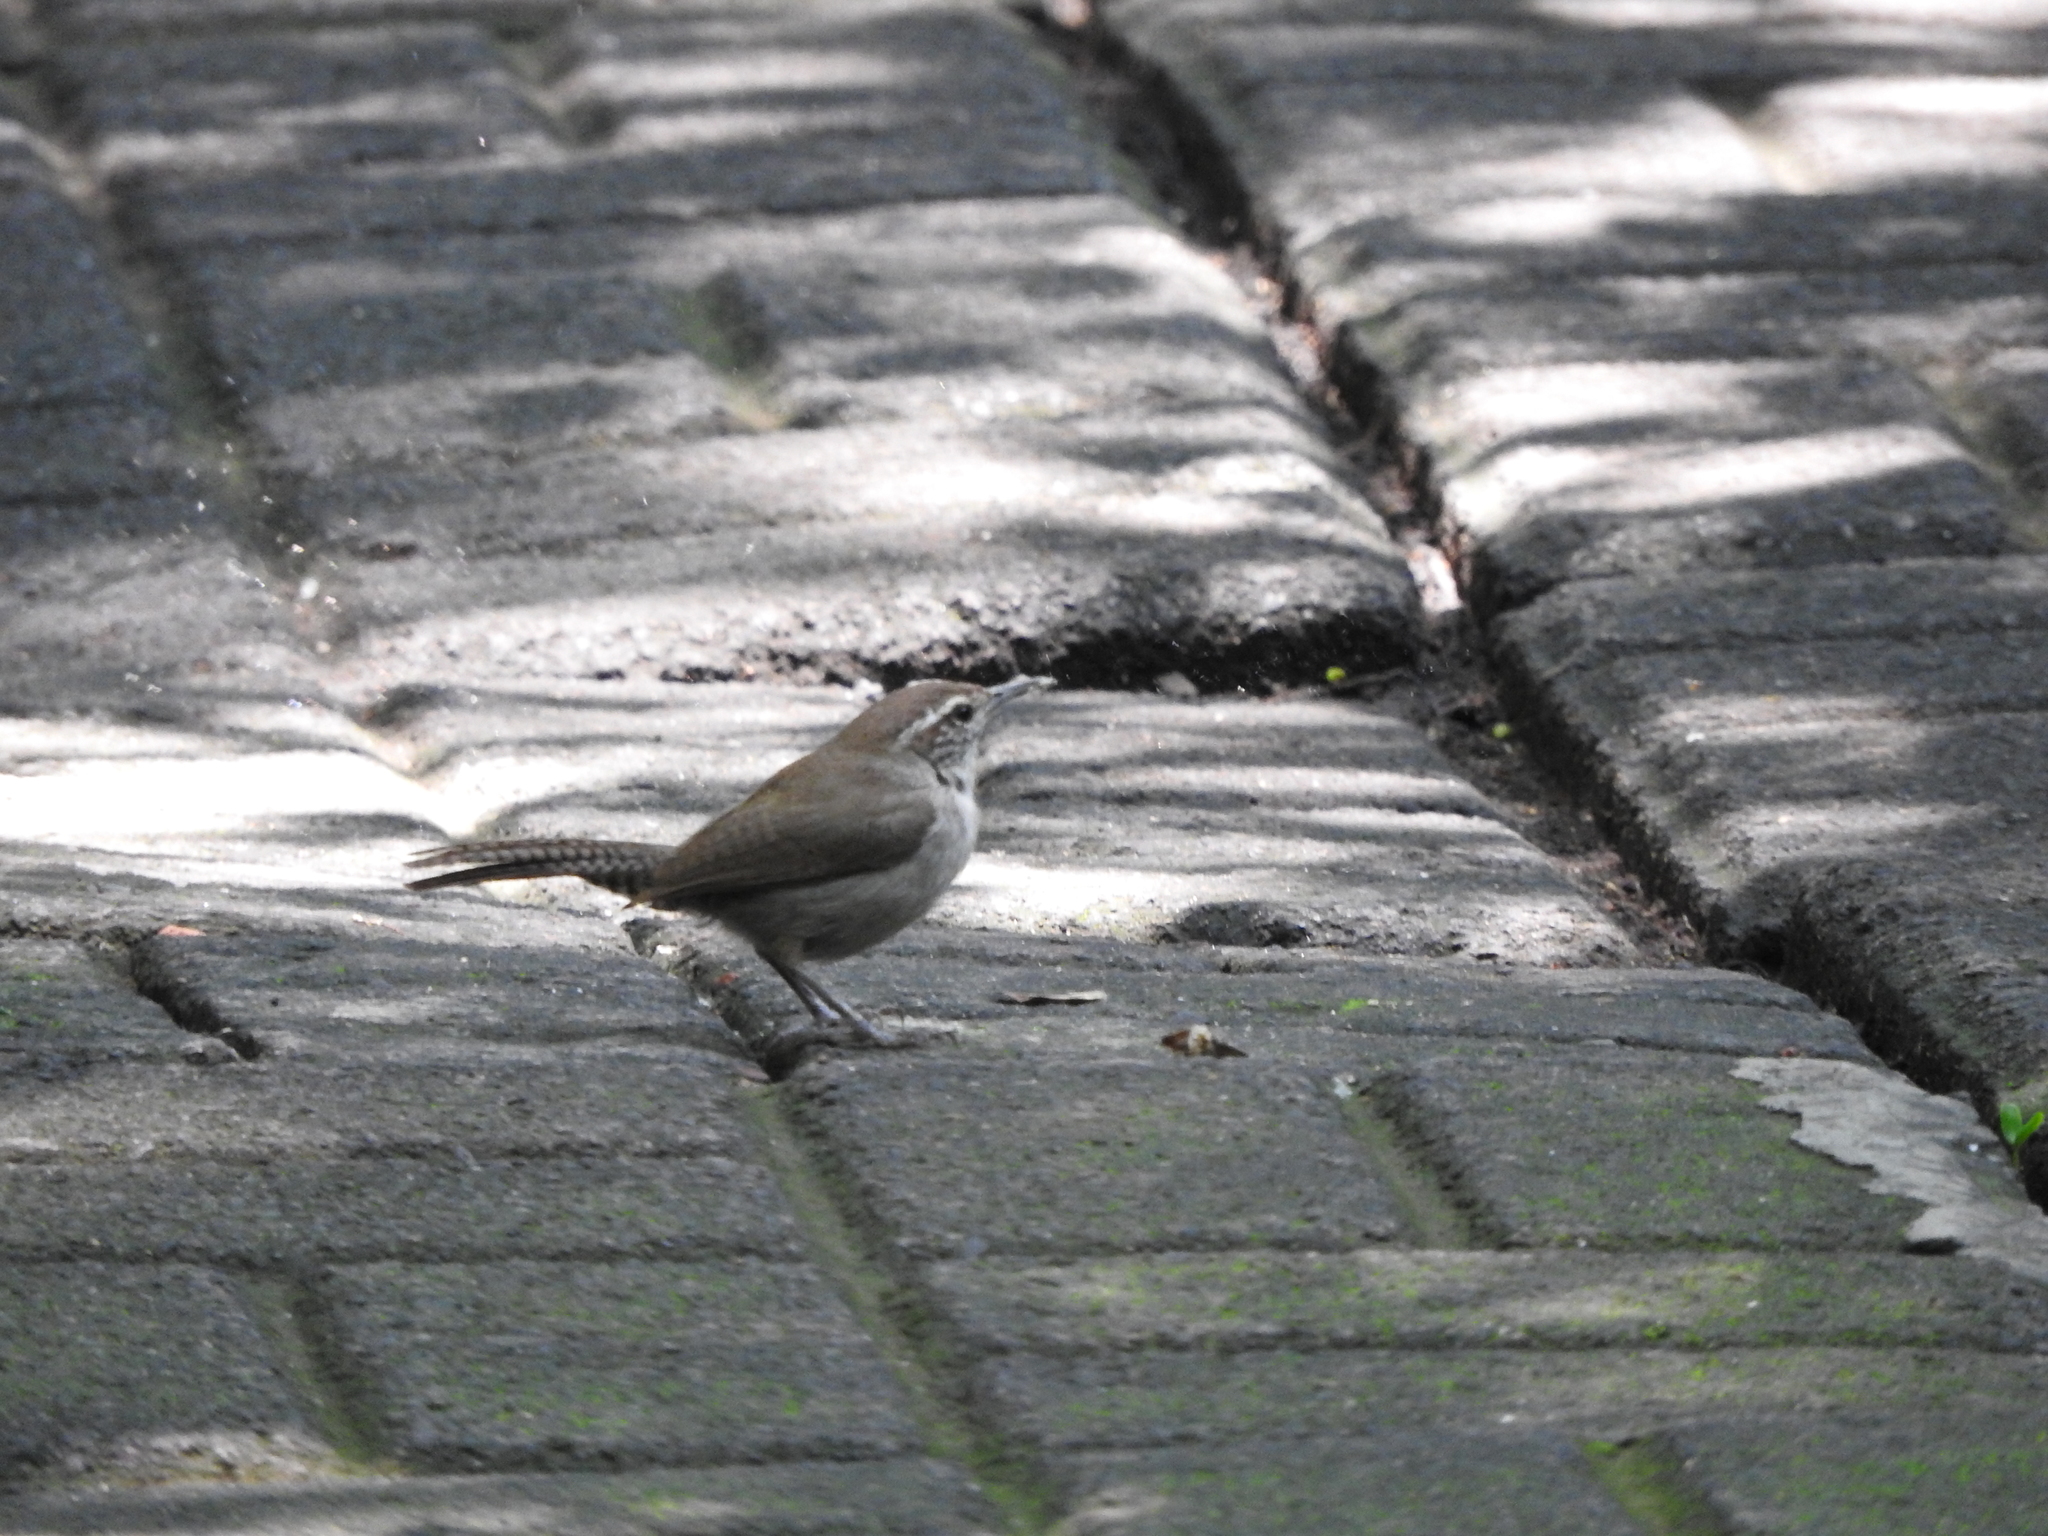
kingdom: Animalia
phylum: Chordata
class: Aves
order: Passeriformes
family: Troglodytidae
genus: Thryomanes
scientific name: Thryomanes bewickii
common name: Bewick's wren
